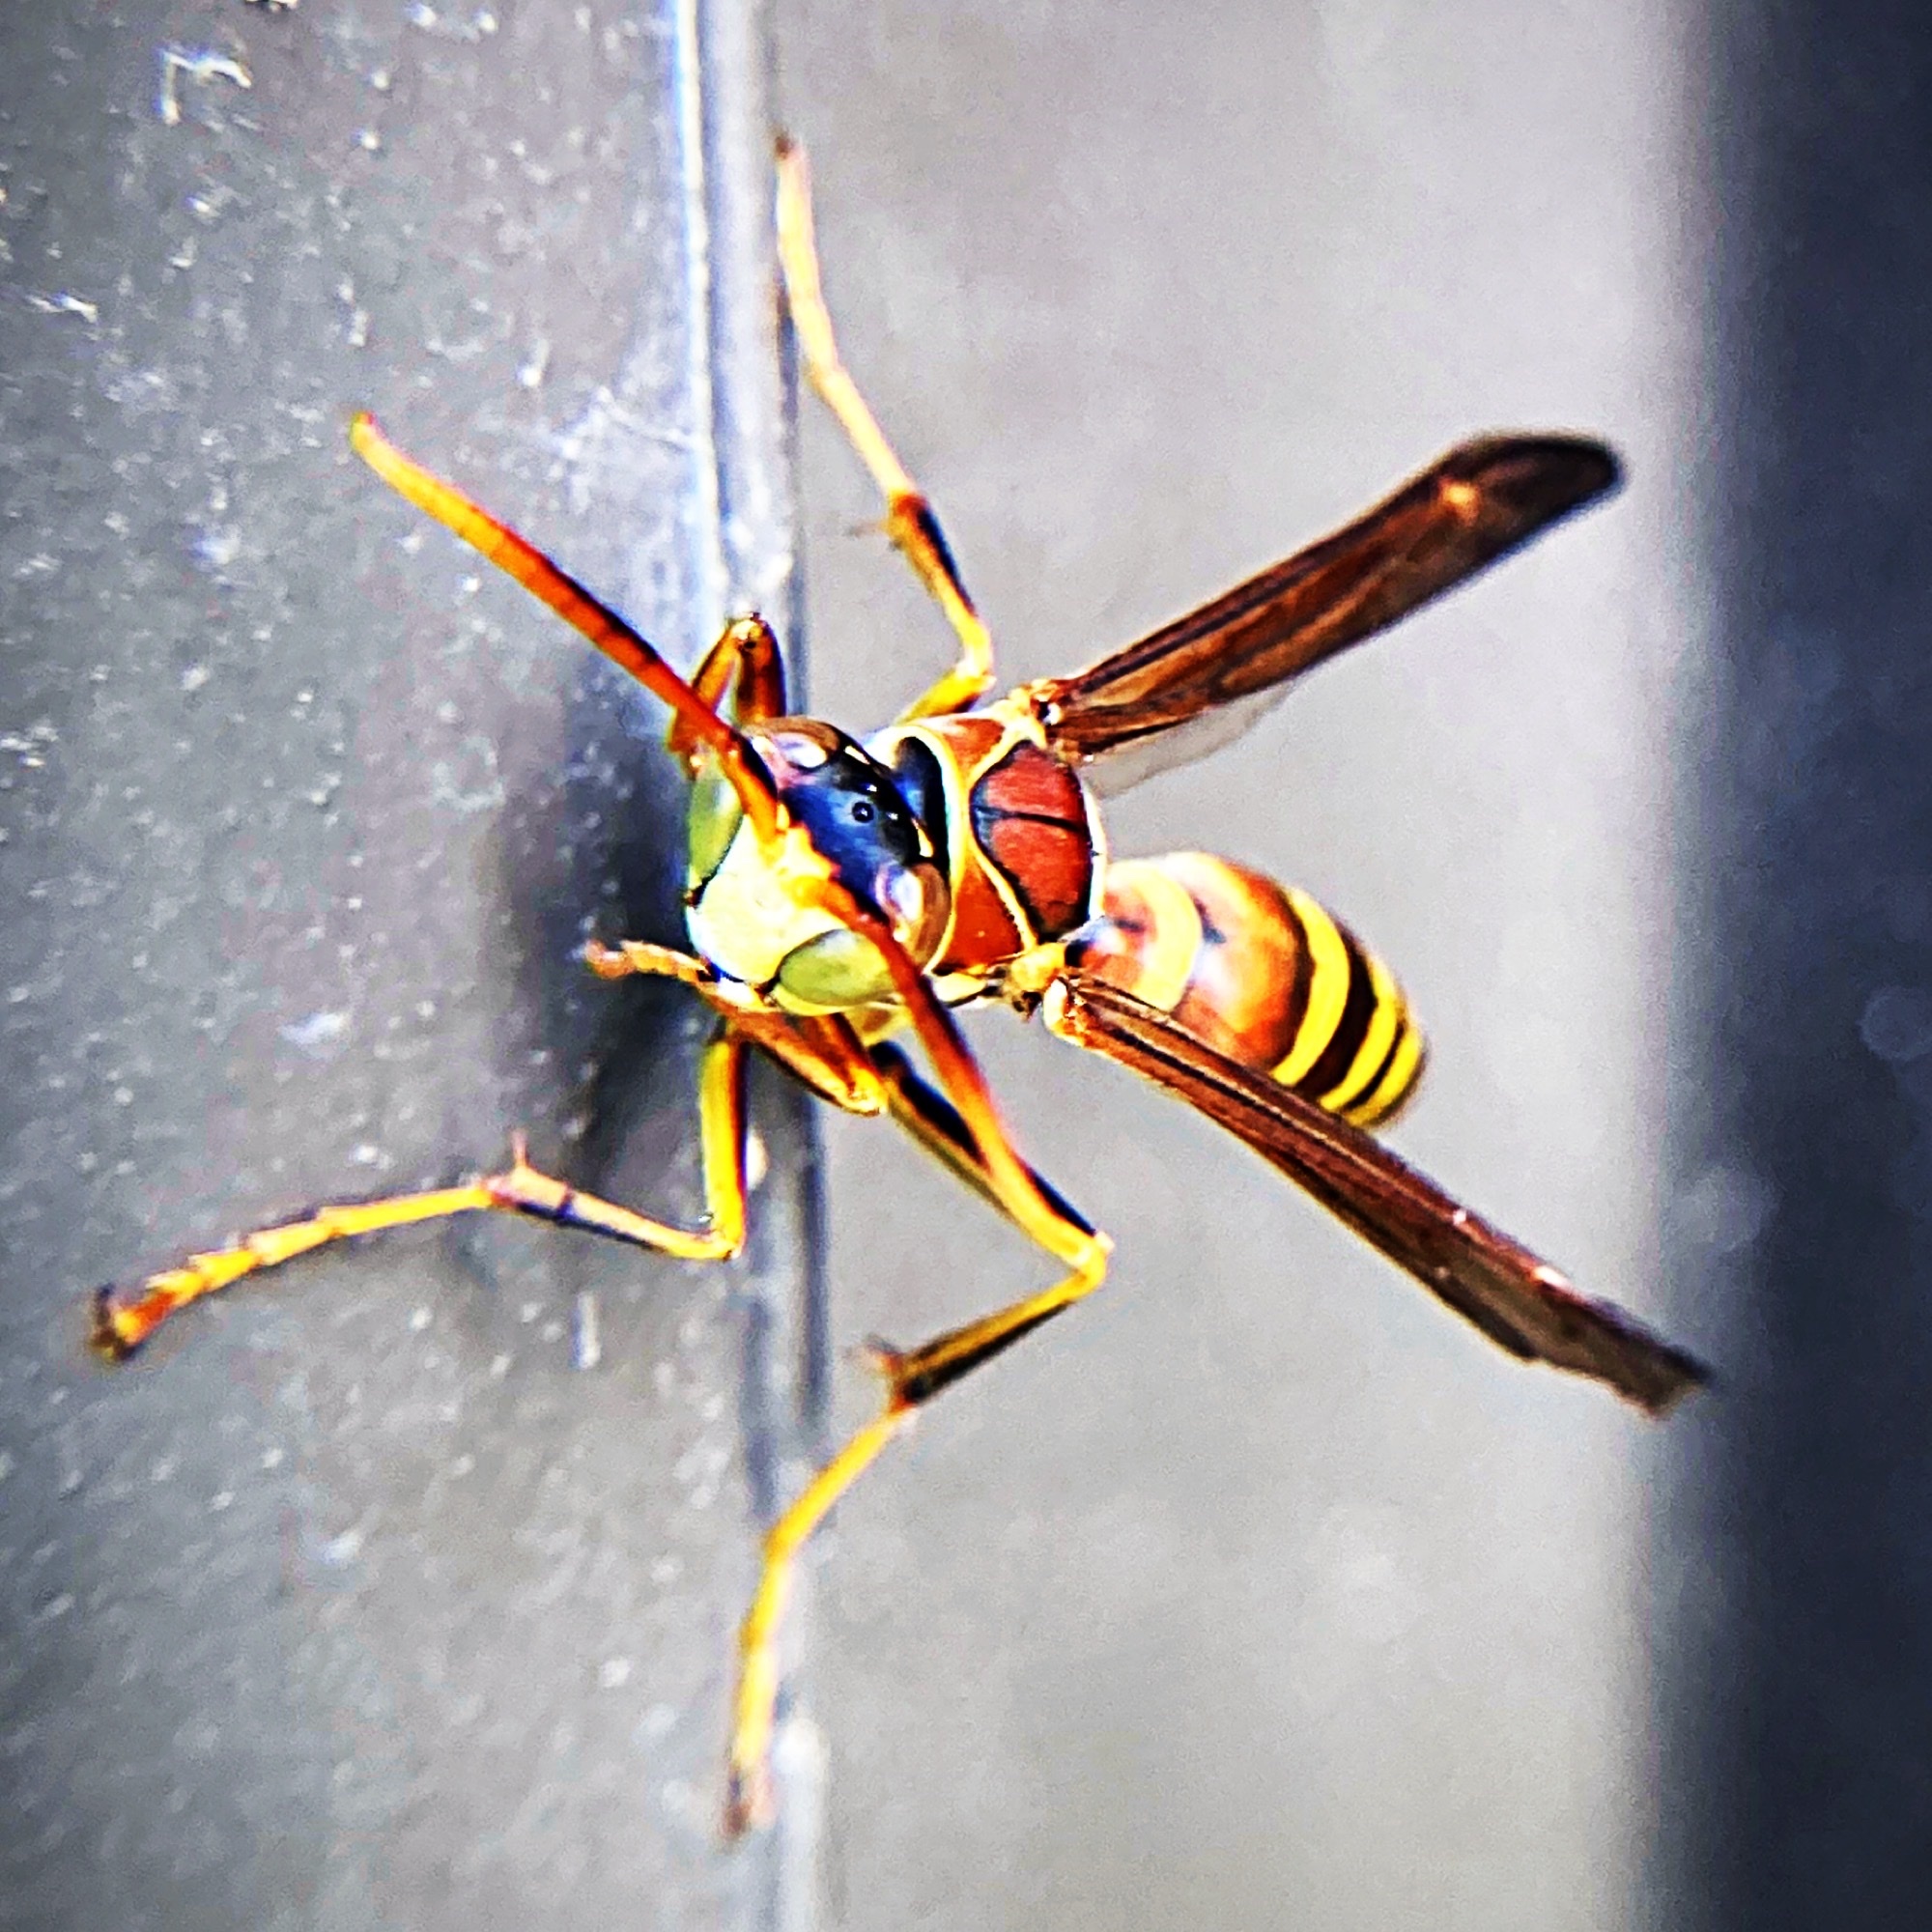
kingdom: Animalia
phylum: Arthropoda
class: Insecta
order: Hymenoptera
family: Eumenidae
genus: Polistes
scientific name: Polistes exclamans
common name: Paper wasp
